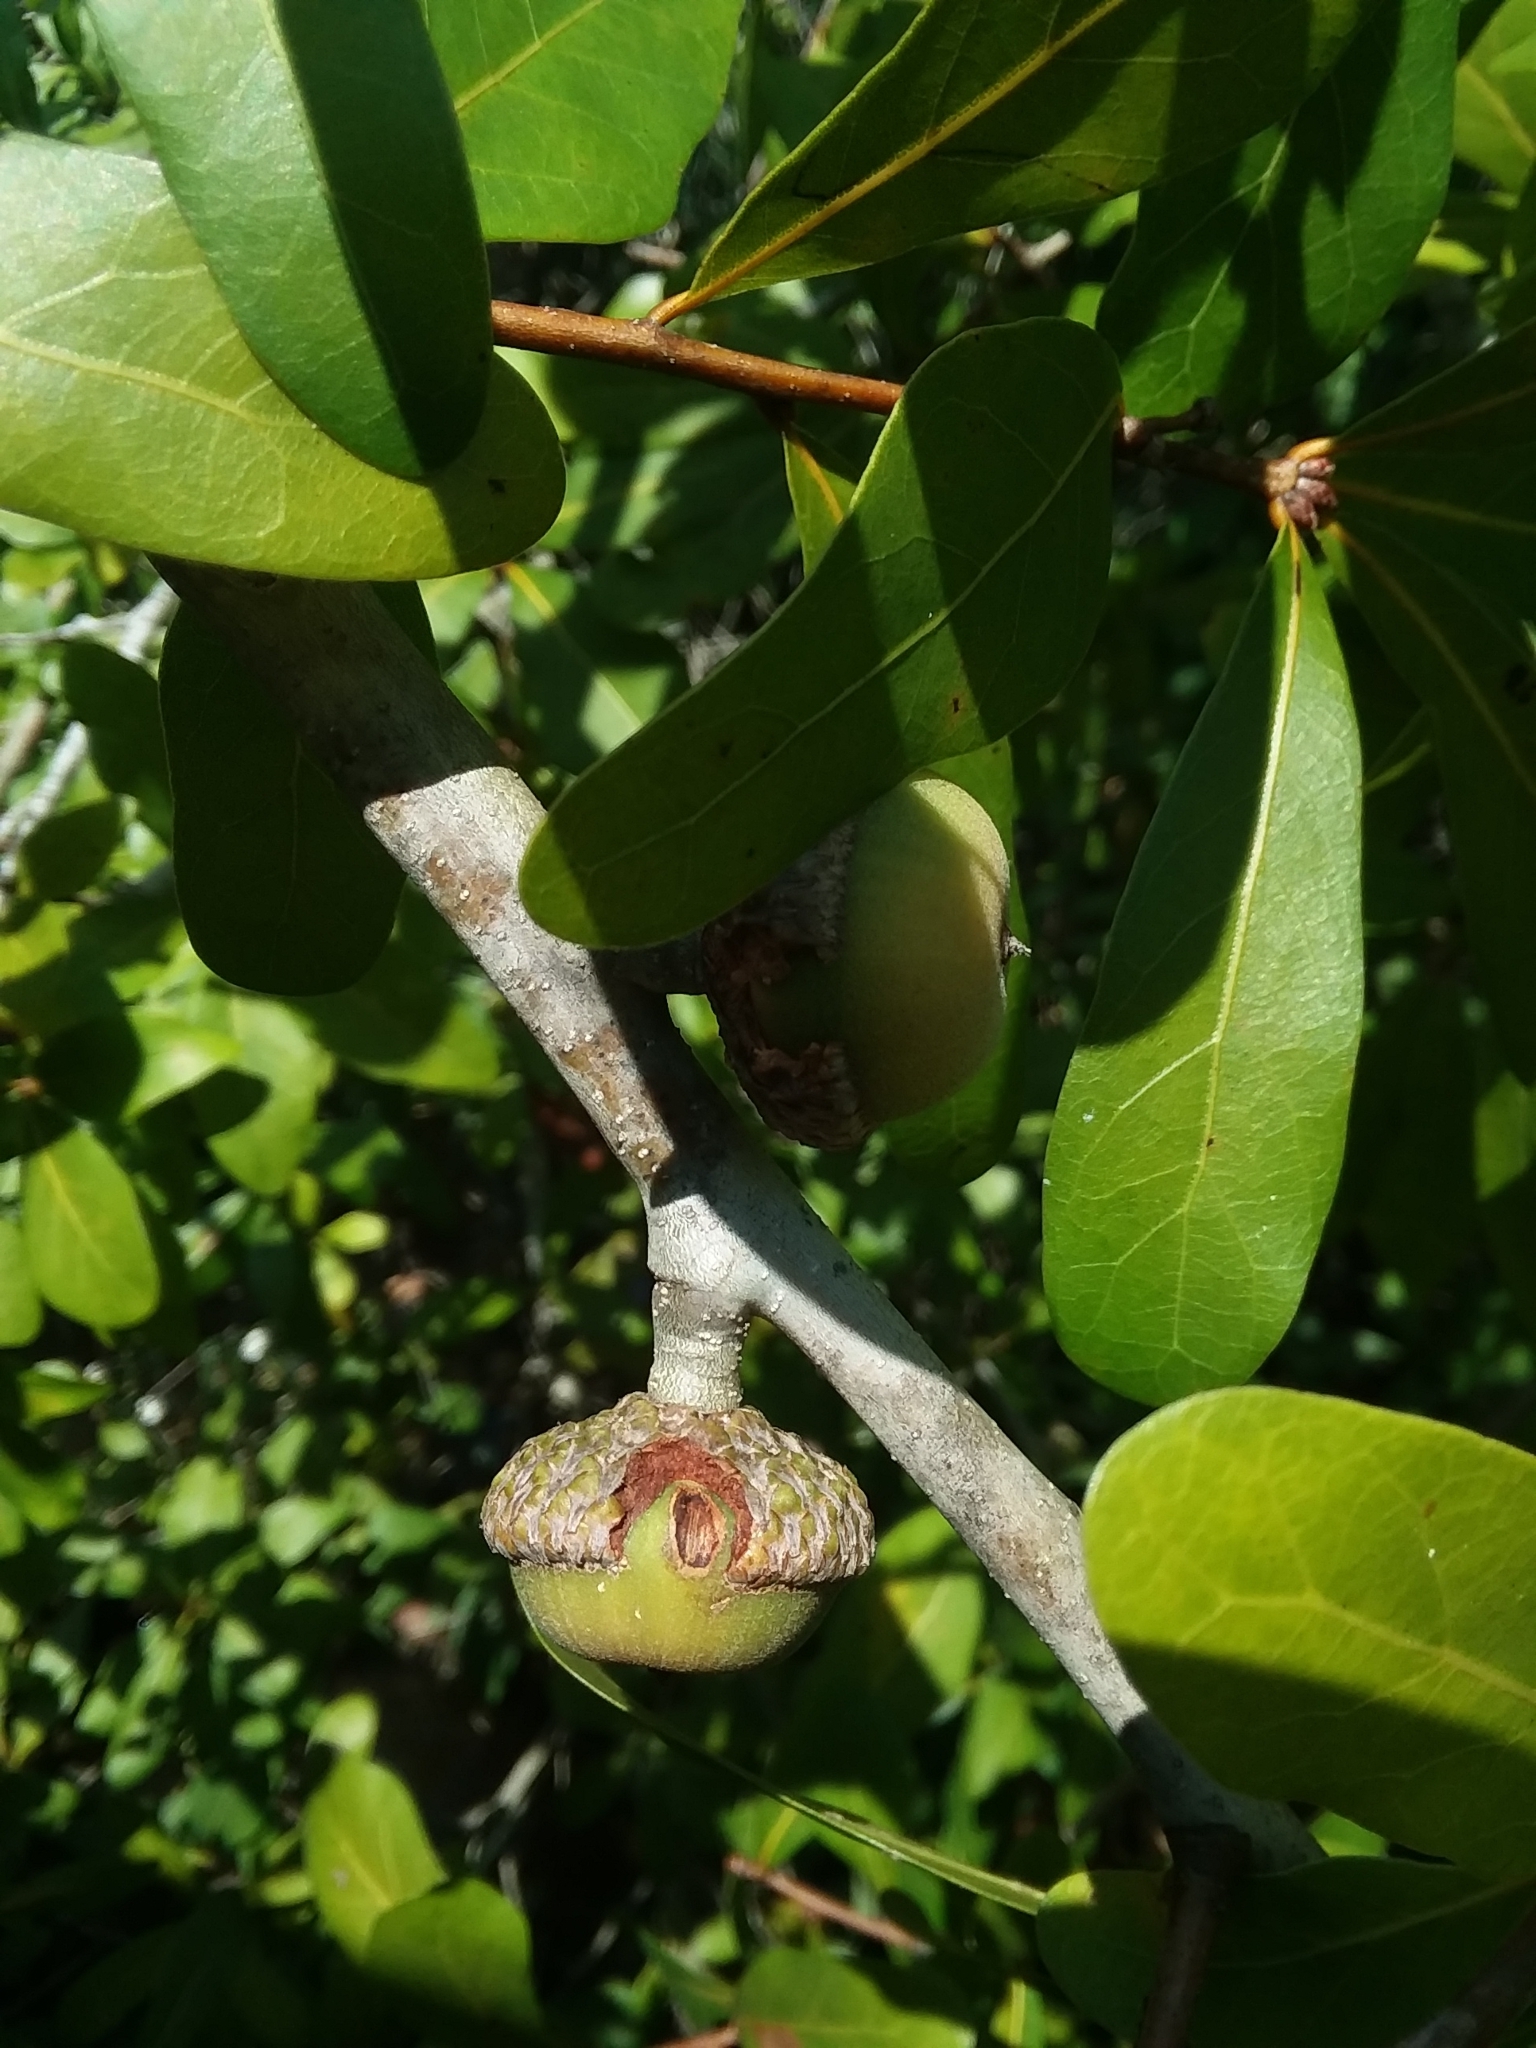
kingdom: Plantae
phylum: Tracheophyta
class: Magnoliopsida
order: Fagales
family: Fagaceae
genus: Quercus
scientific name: Quercus laurifolia
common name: Swamp laurel oak
